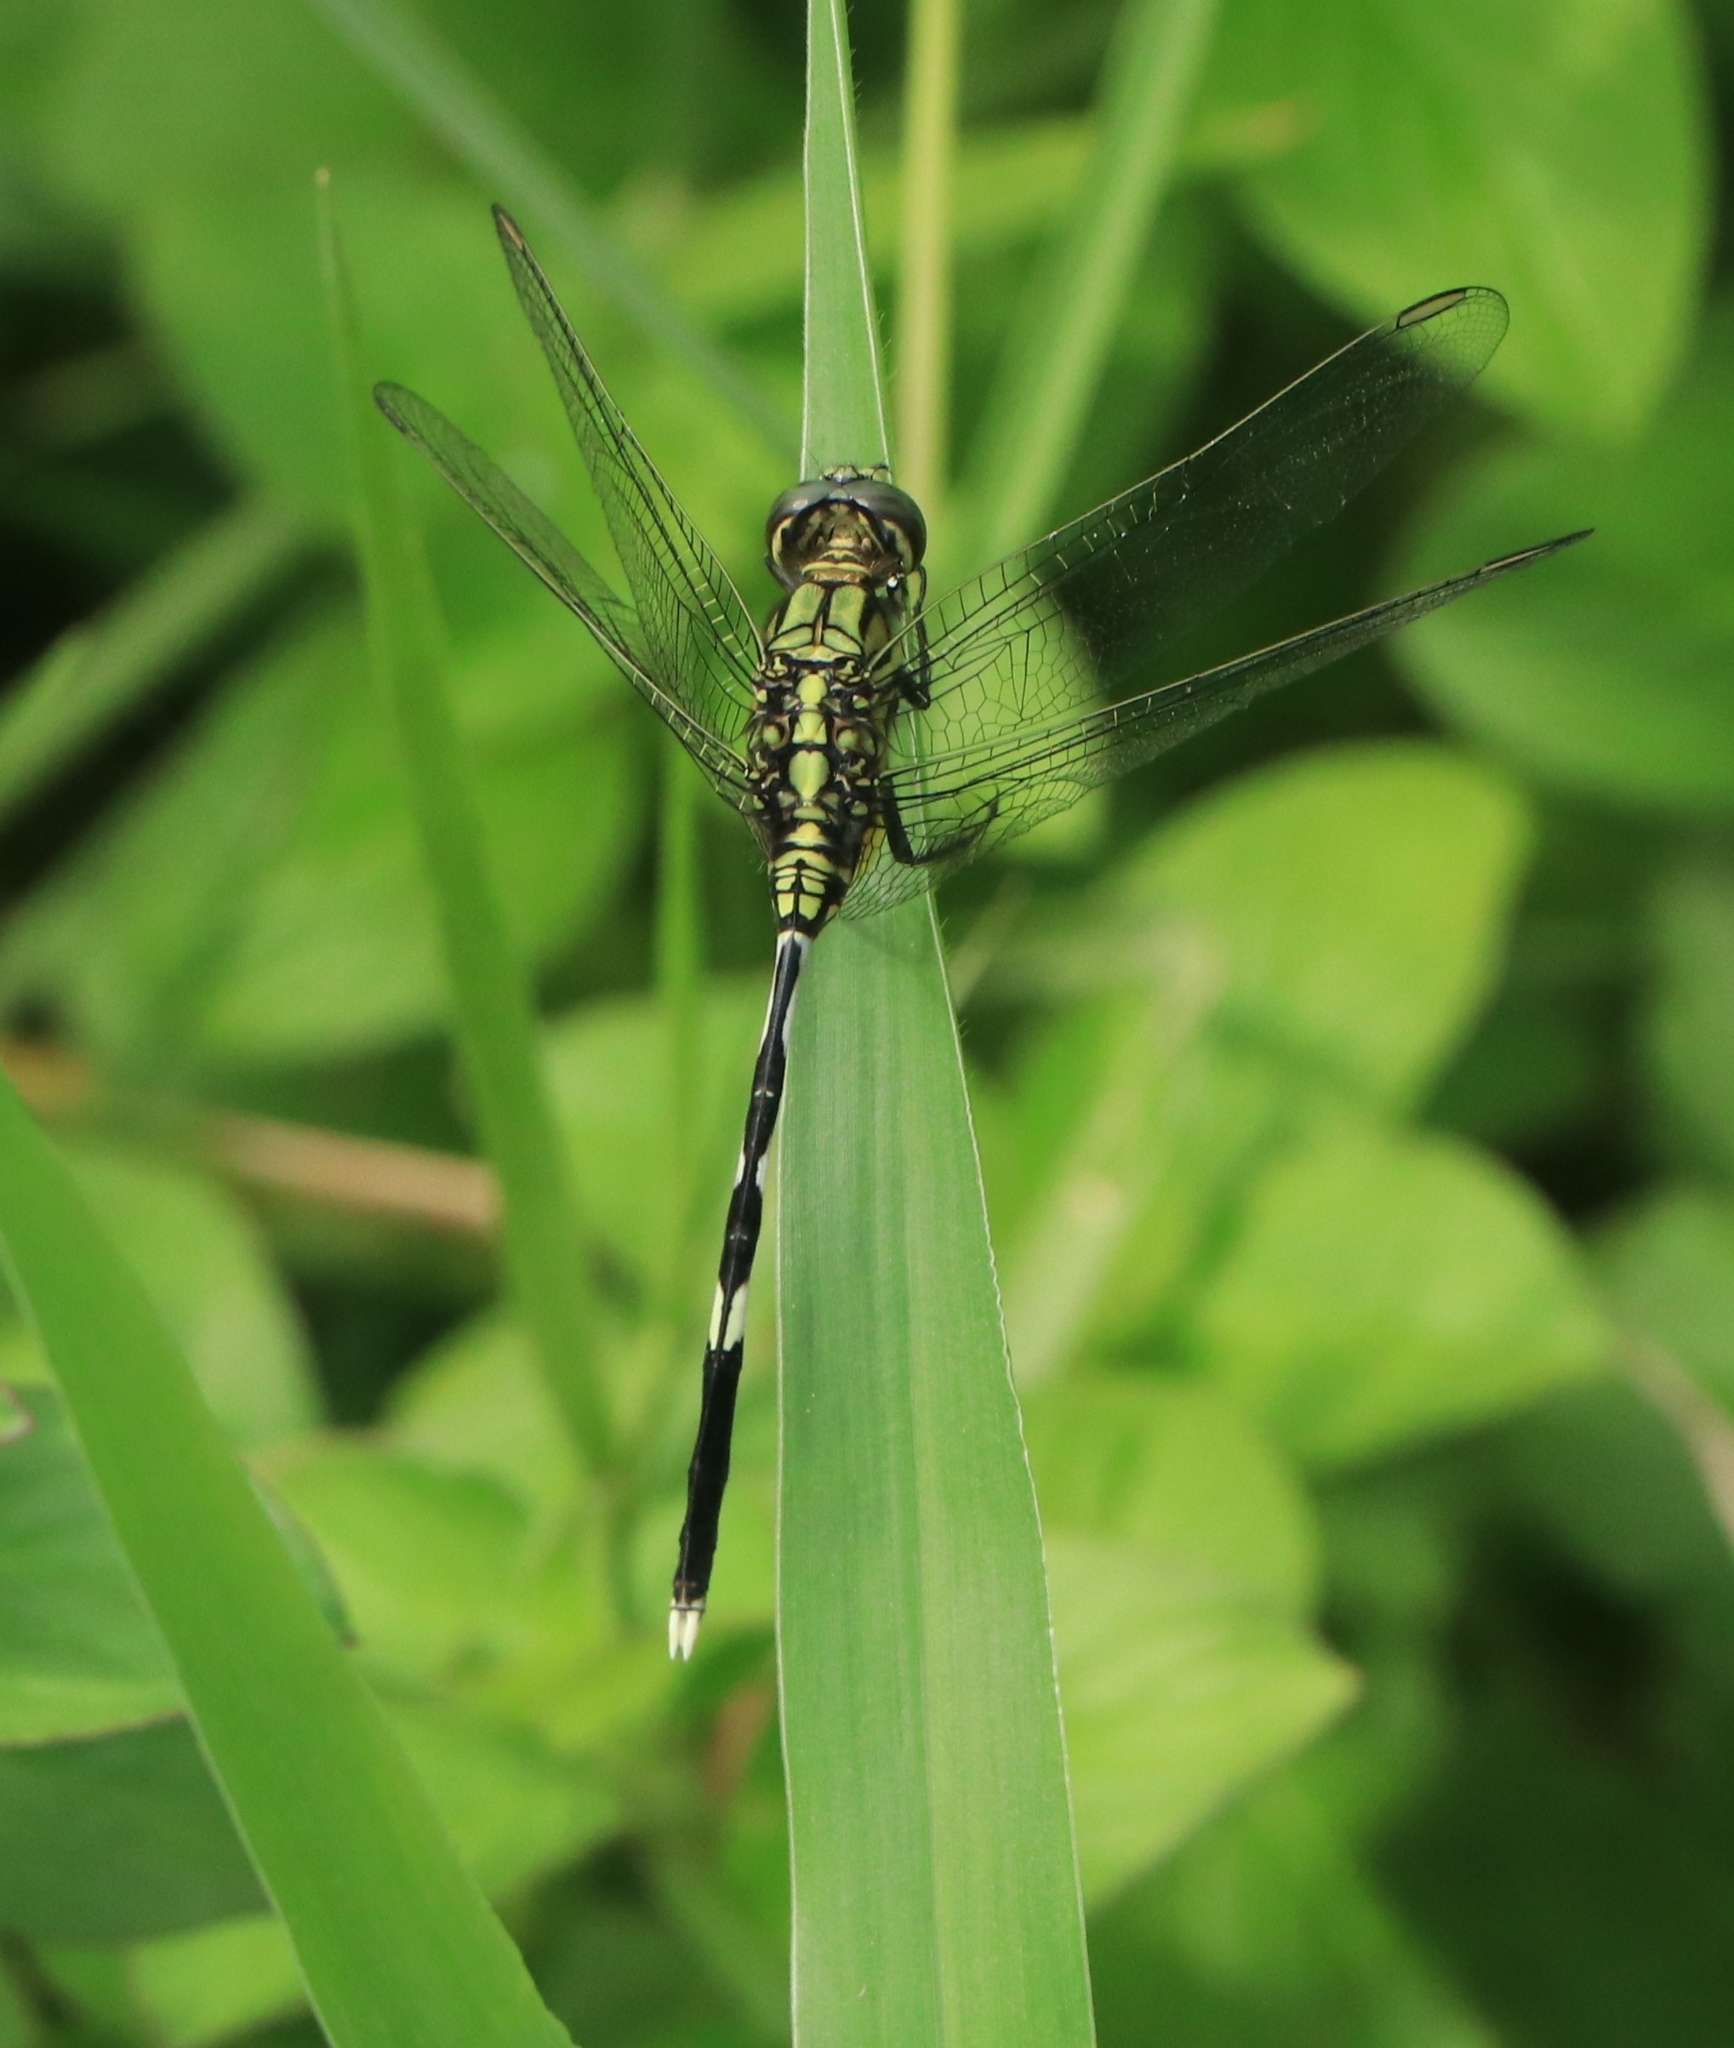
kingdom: Animalia
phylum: Arthropoda
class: Insecta
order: Odonata
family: Libellulidae
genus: Orthetrum
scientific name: Orthetrum sabina
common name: Slender skimmer
